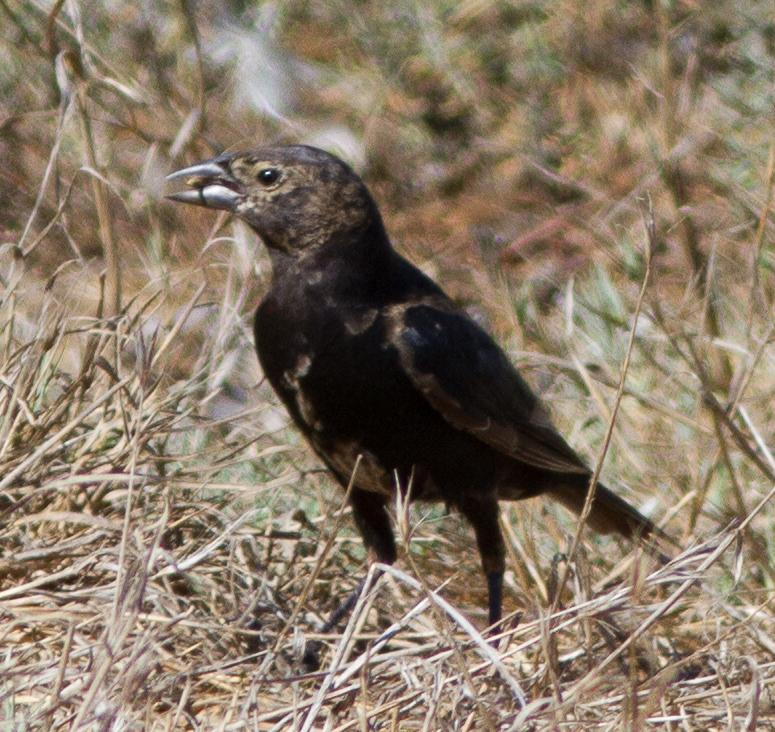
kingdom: Animalia
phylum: Chordata
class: Aves
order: Passeriformes
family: Icteridae
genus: Molothrus
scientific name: Molothrus ater
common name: Brown-headed cowbird
